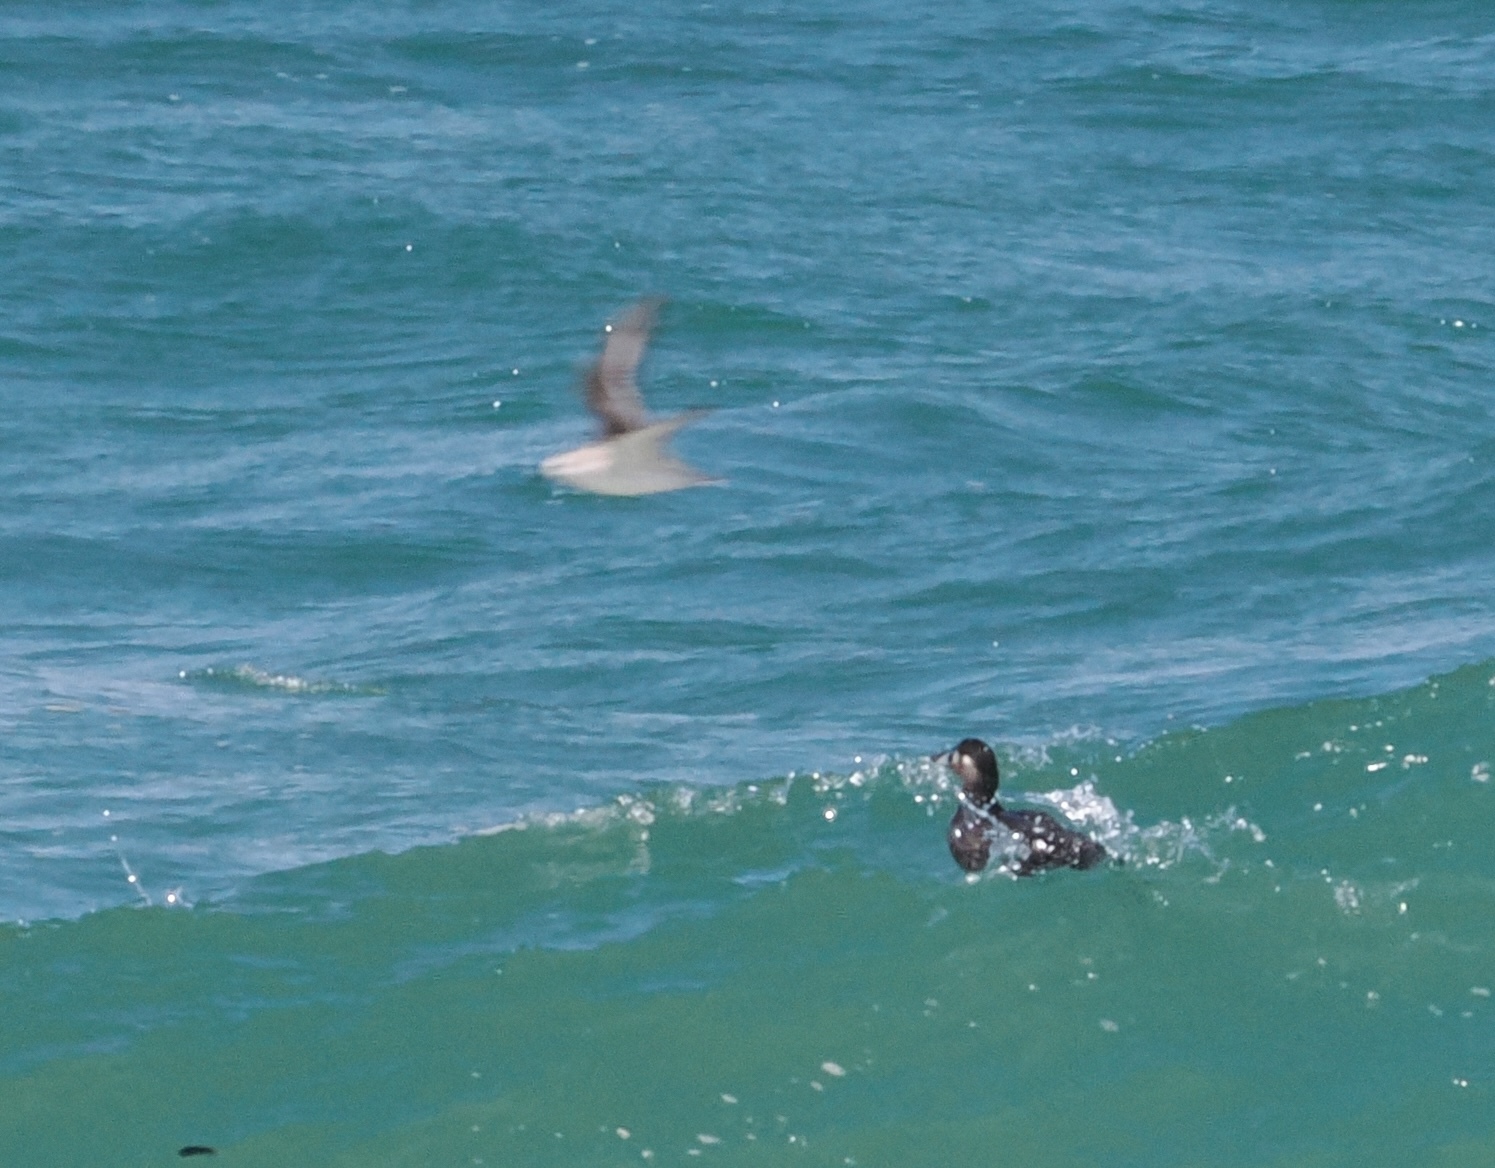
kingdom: Animalia
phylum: Chordata
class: Aves
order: Anseriformes
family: Anatidae
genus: Melanitta
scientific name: Melanitta perspicillata
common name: Surf scoter
